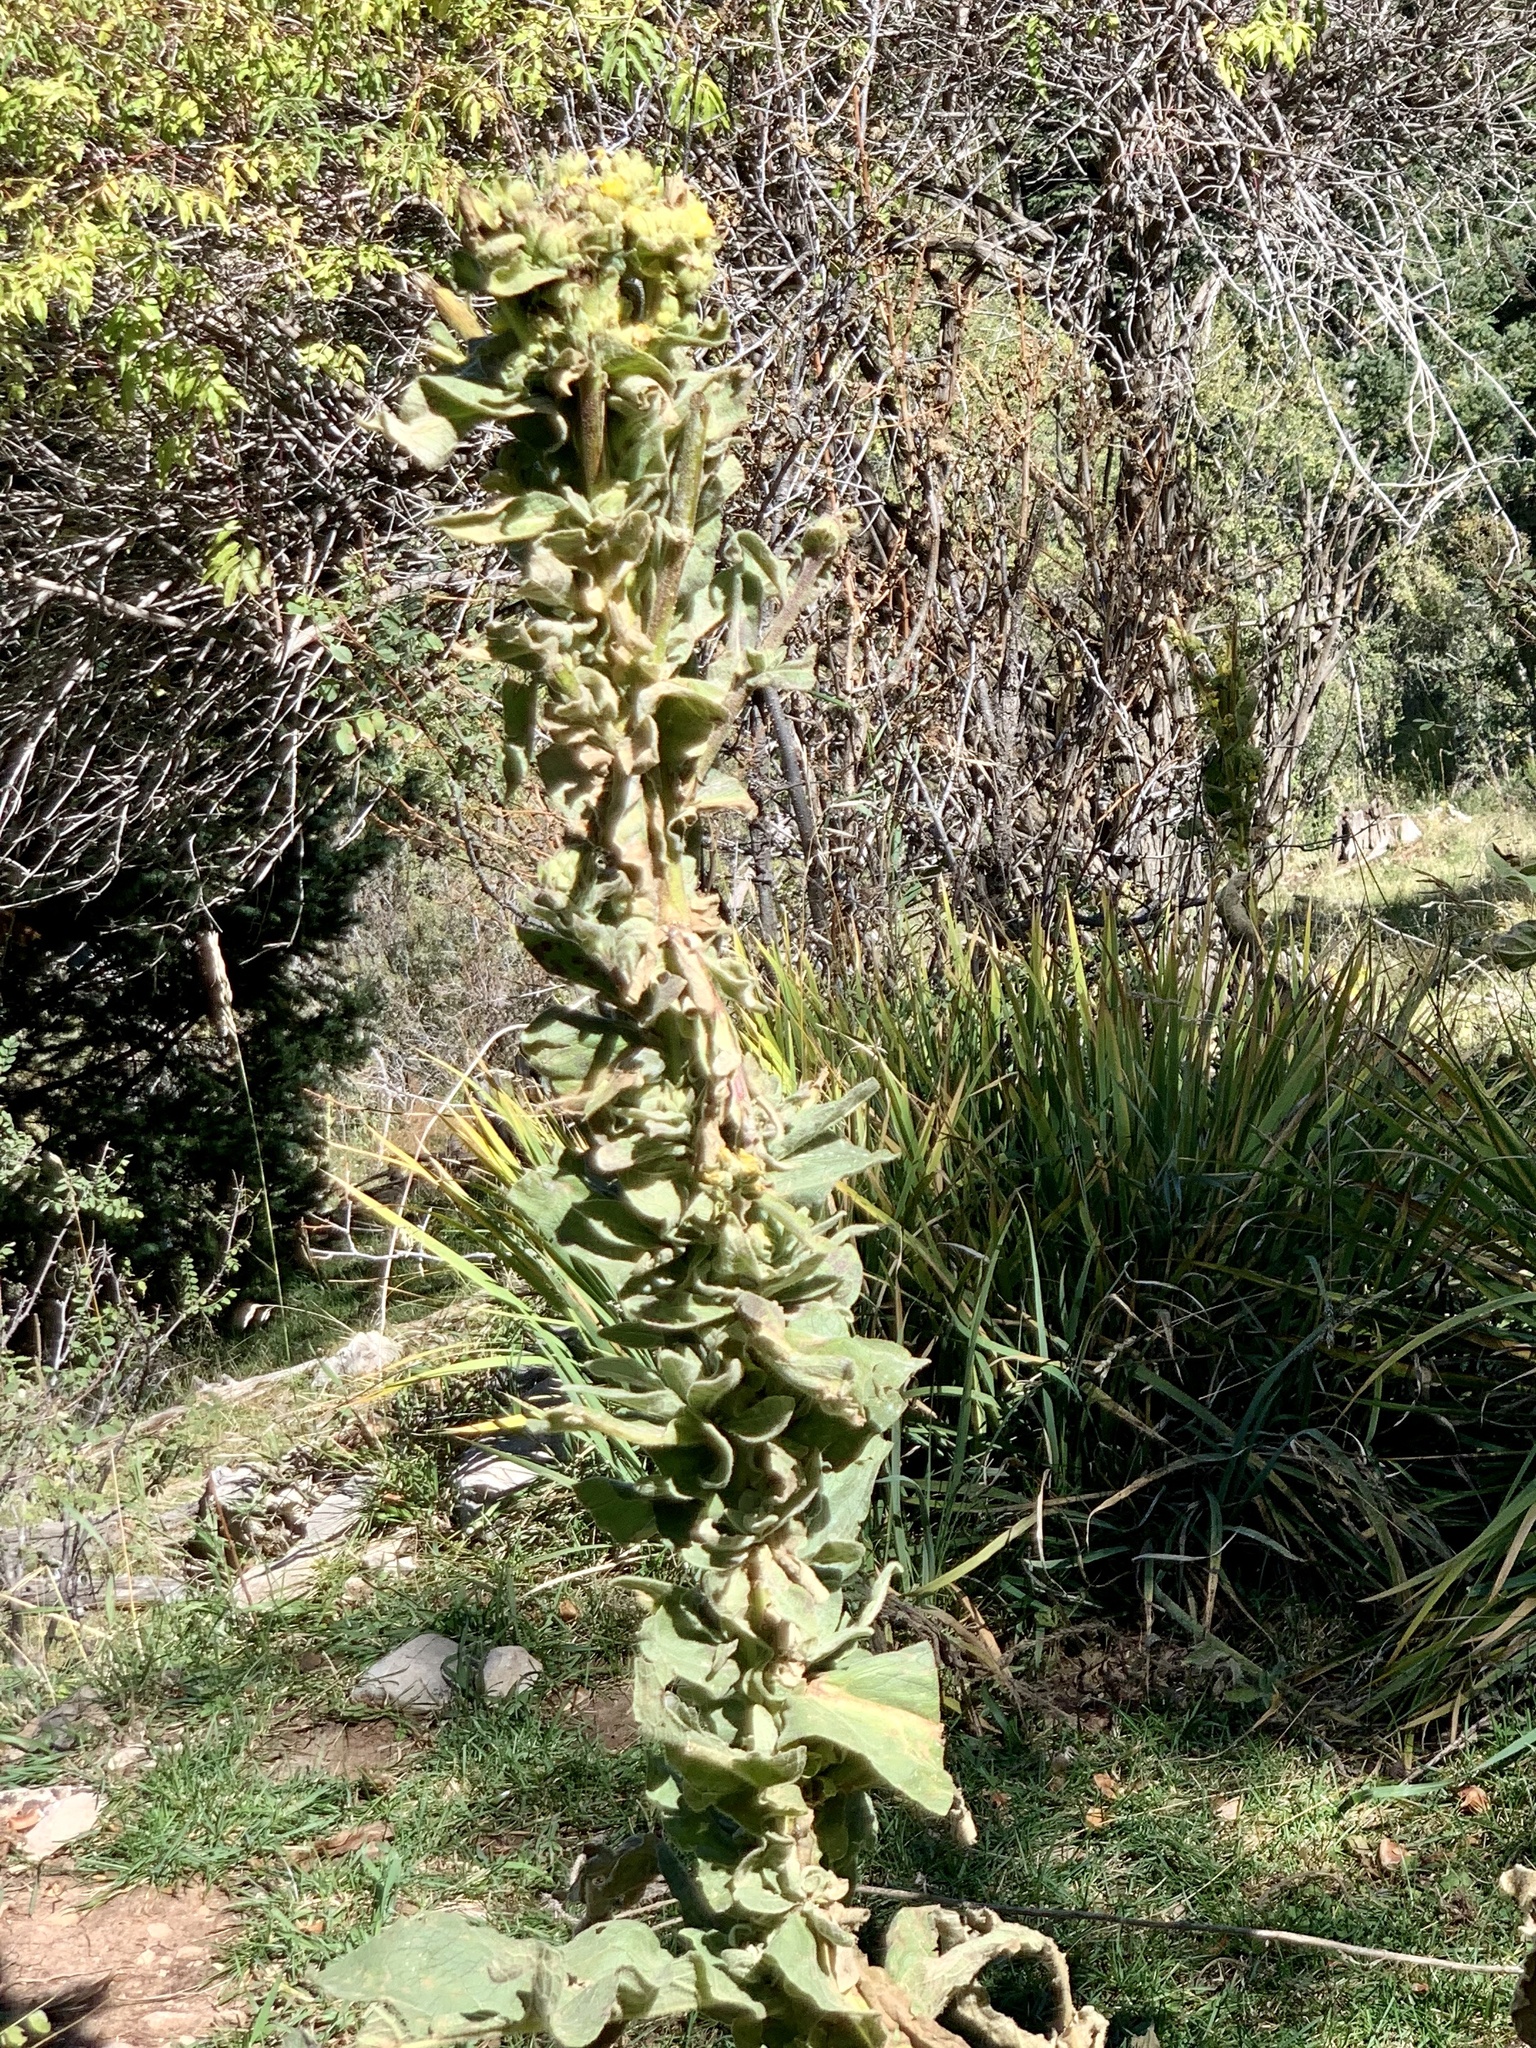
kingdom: Plantae
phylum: Tracheophyta
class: Magnoliopsida
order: Lamiales
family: Scrophulariaceae
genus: Verbascum
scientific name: Verbascum thapsus
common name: Common mullein
